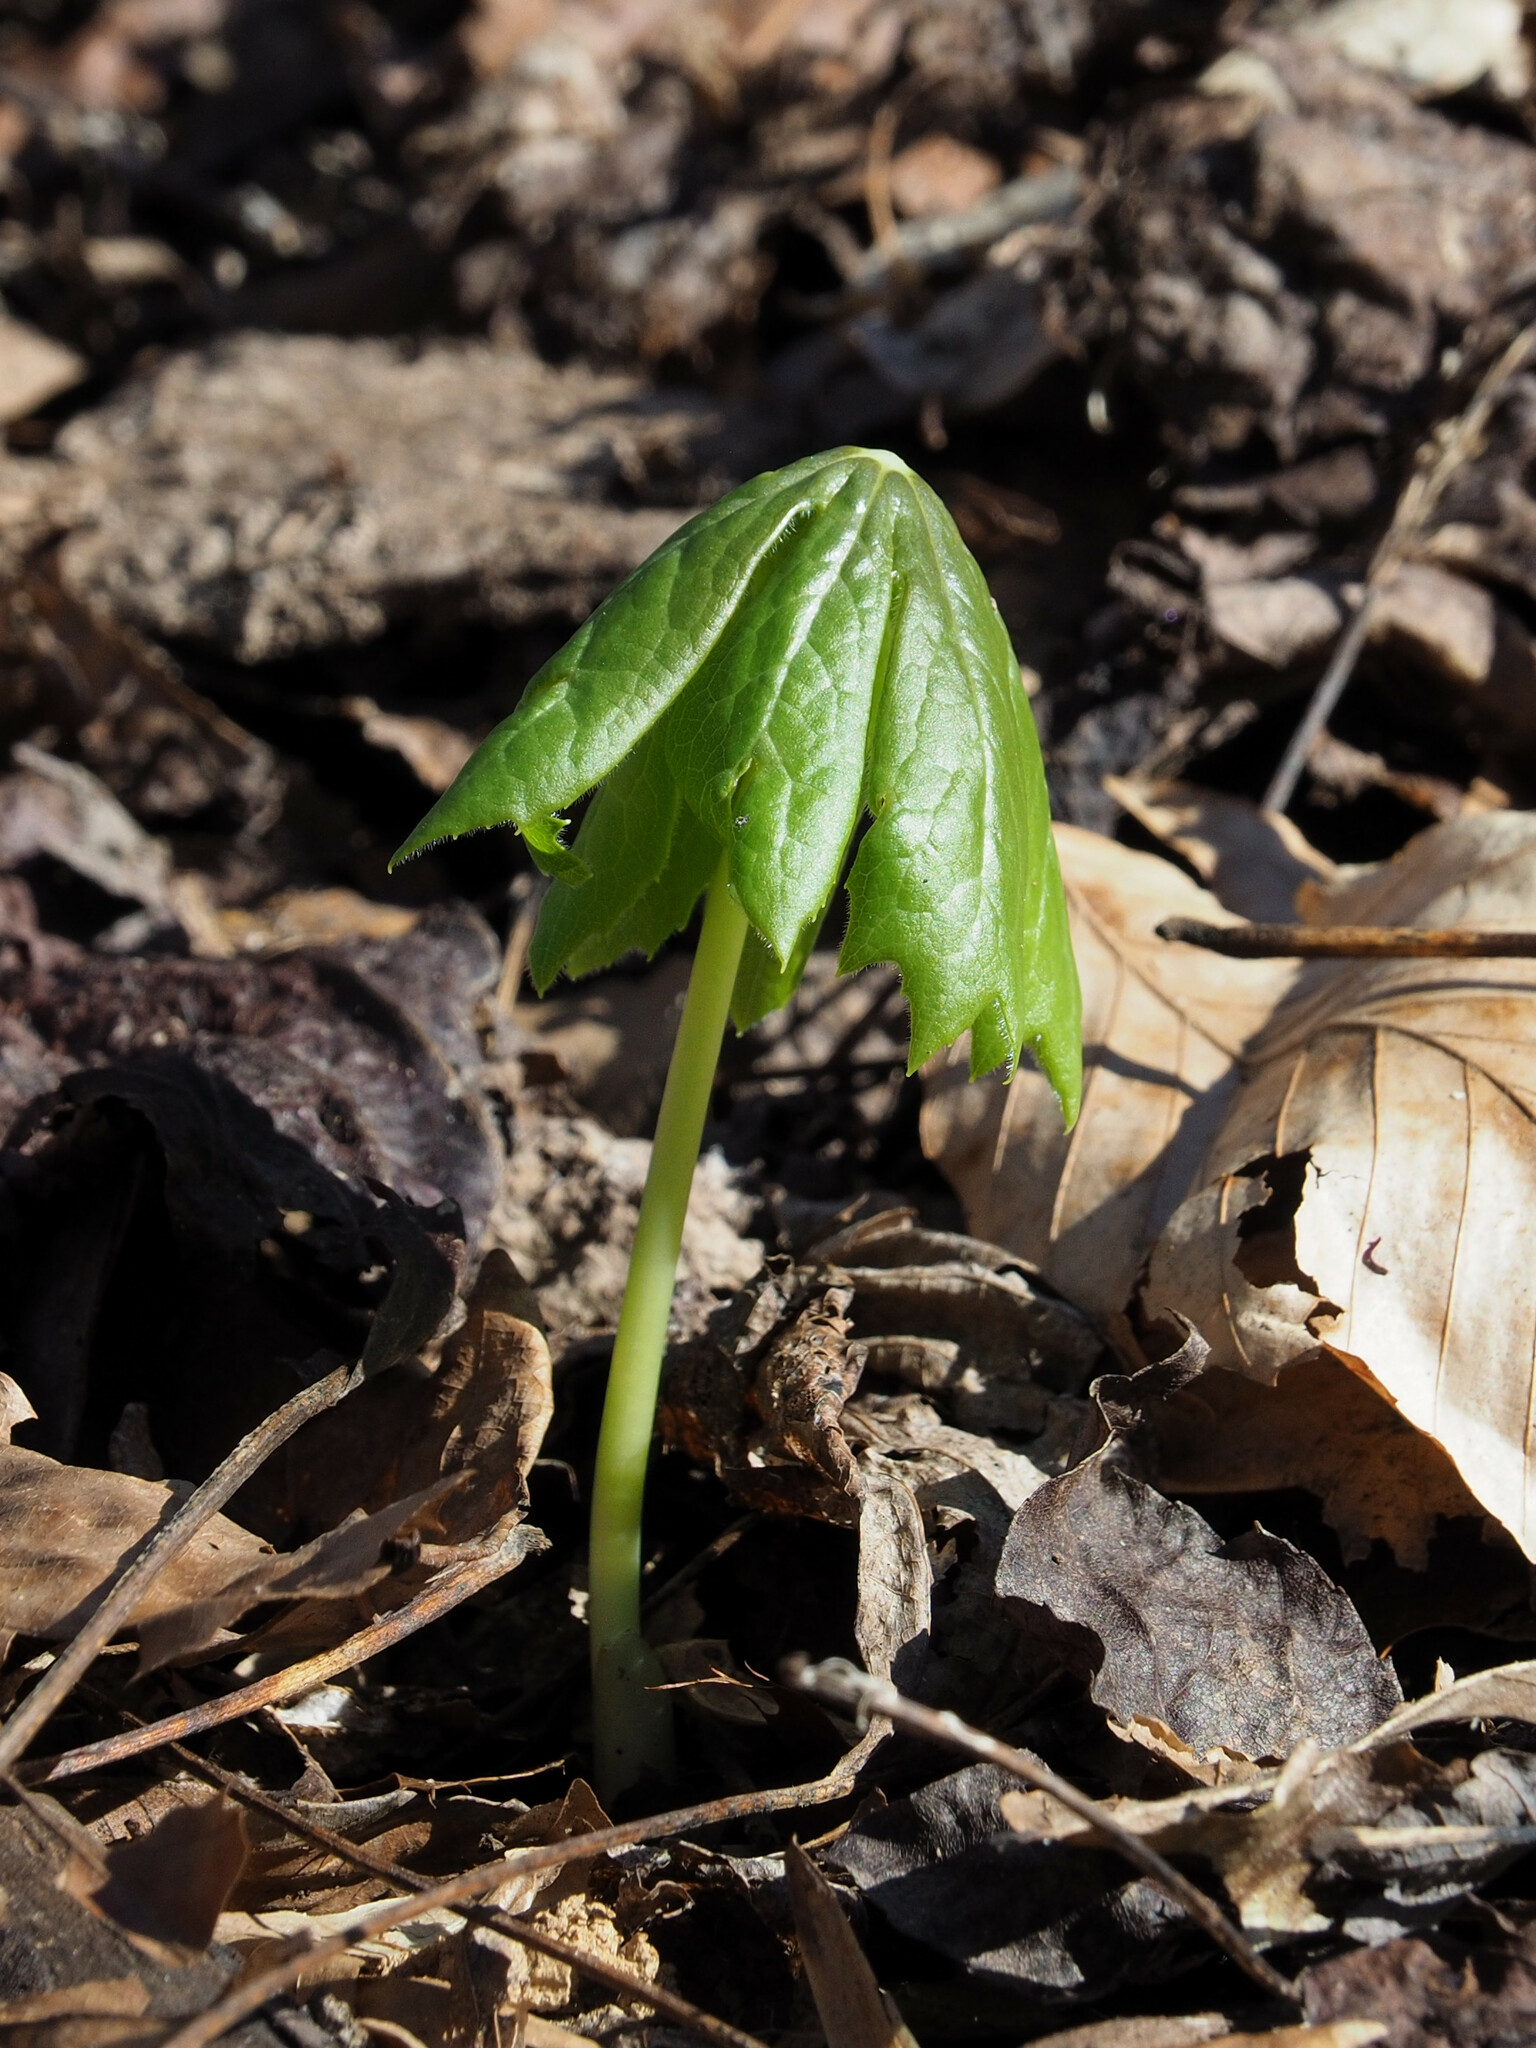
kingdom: Plantae
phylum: Tracheophyta
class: Magnoliopsida
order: Ranunculales
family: Berberidaceae
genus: Podophyllum
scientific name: Podophyllum peltatum
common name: Wild mandrake
